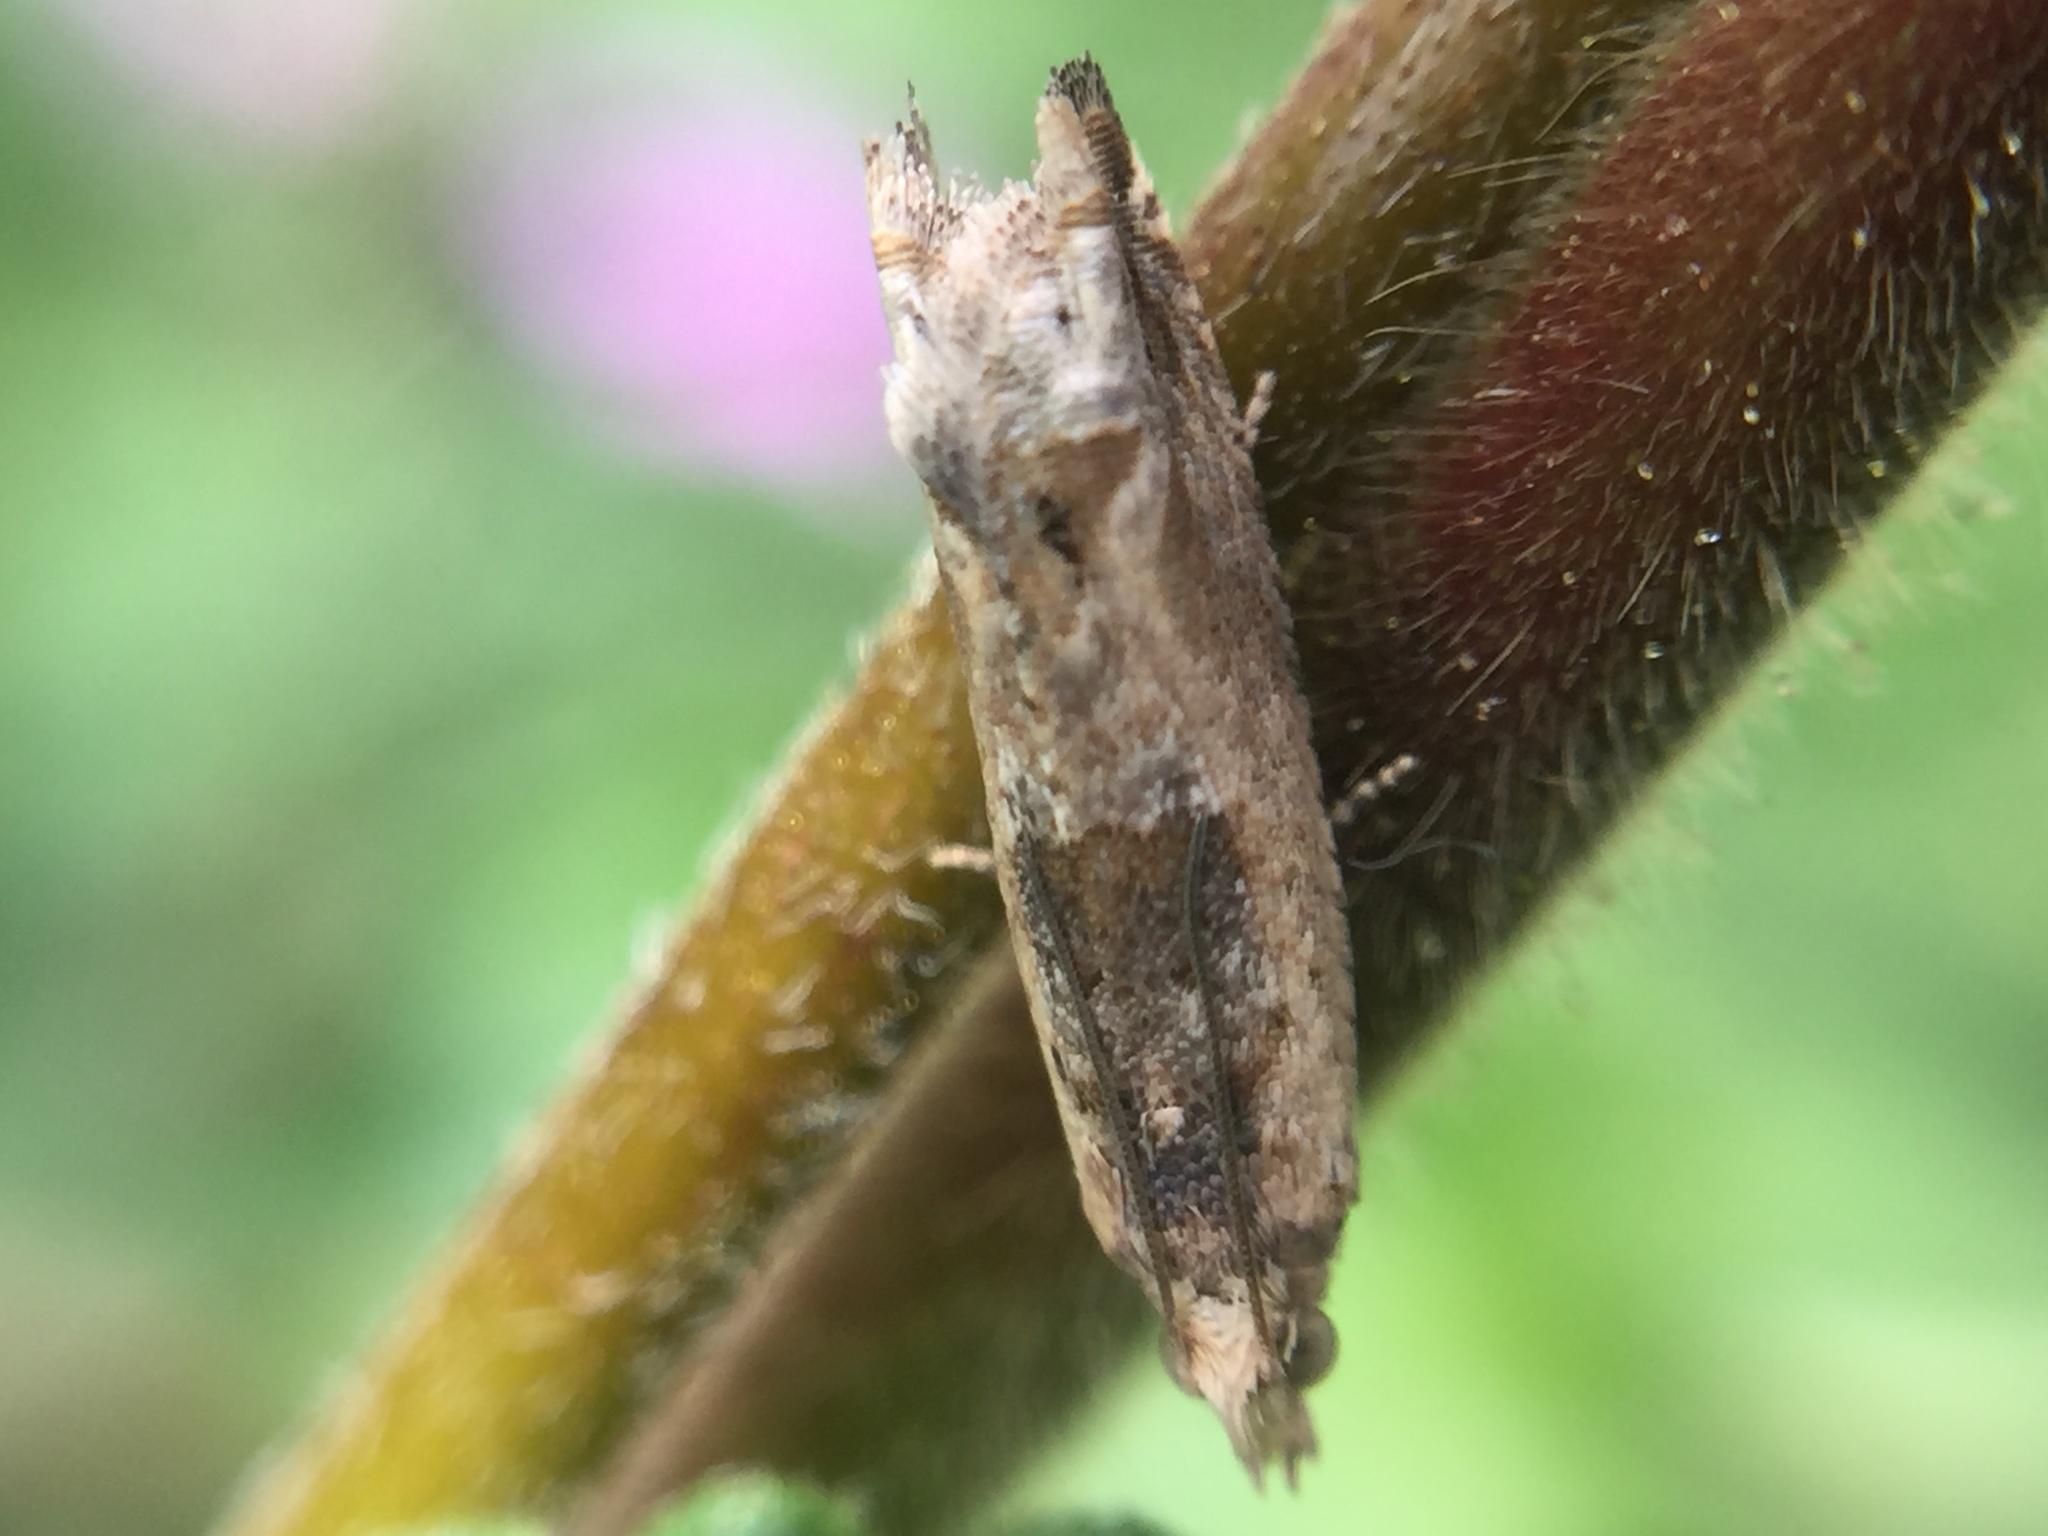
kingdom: Animalia
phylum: Arthropoda
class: Insecta
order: Lepidoptera
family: Tortricidae
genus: Crocidosema
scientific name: Crocidosema plebejana
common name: Southern bell
